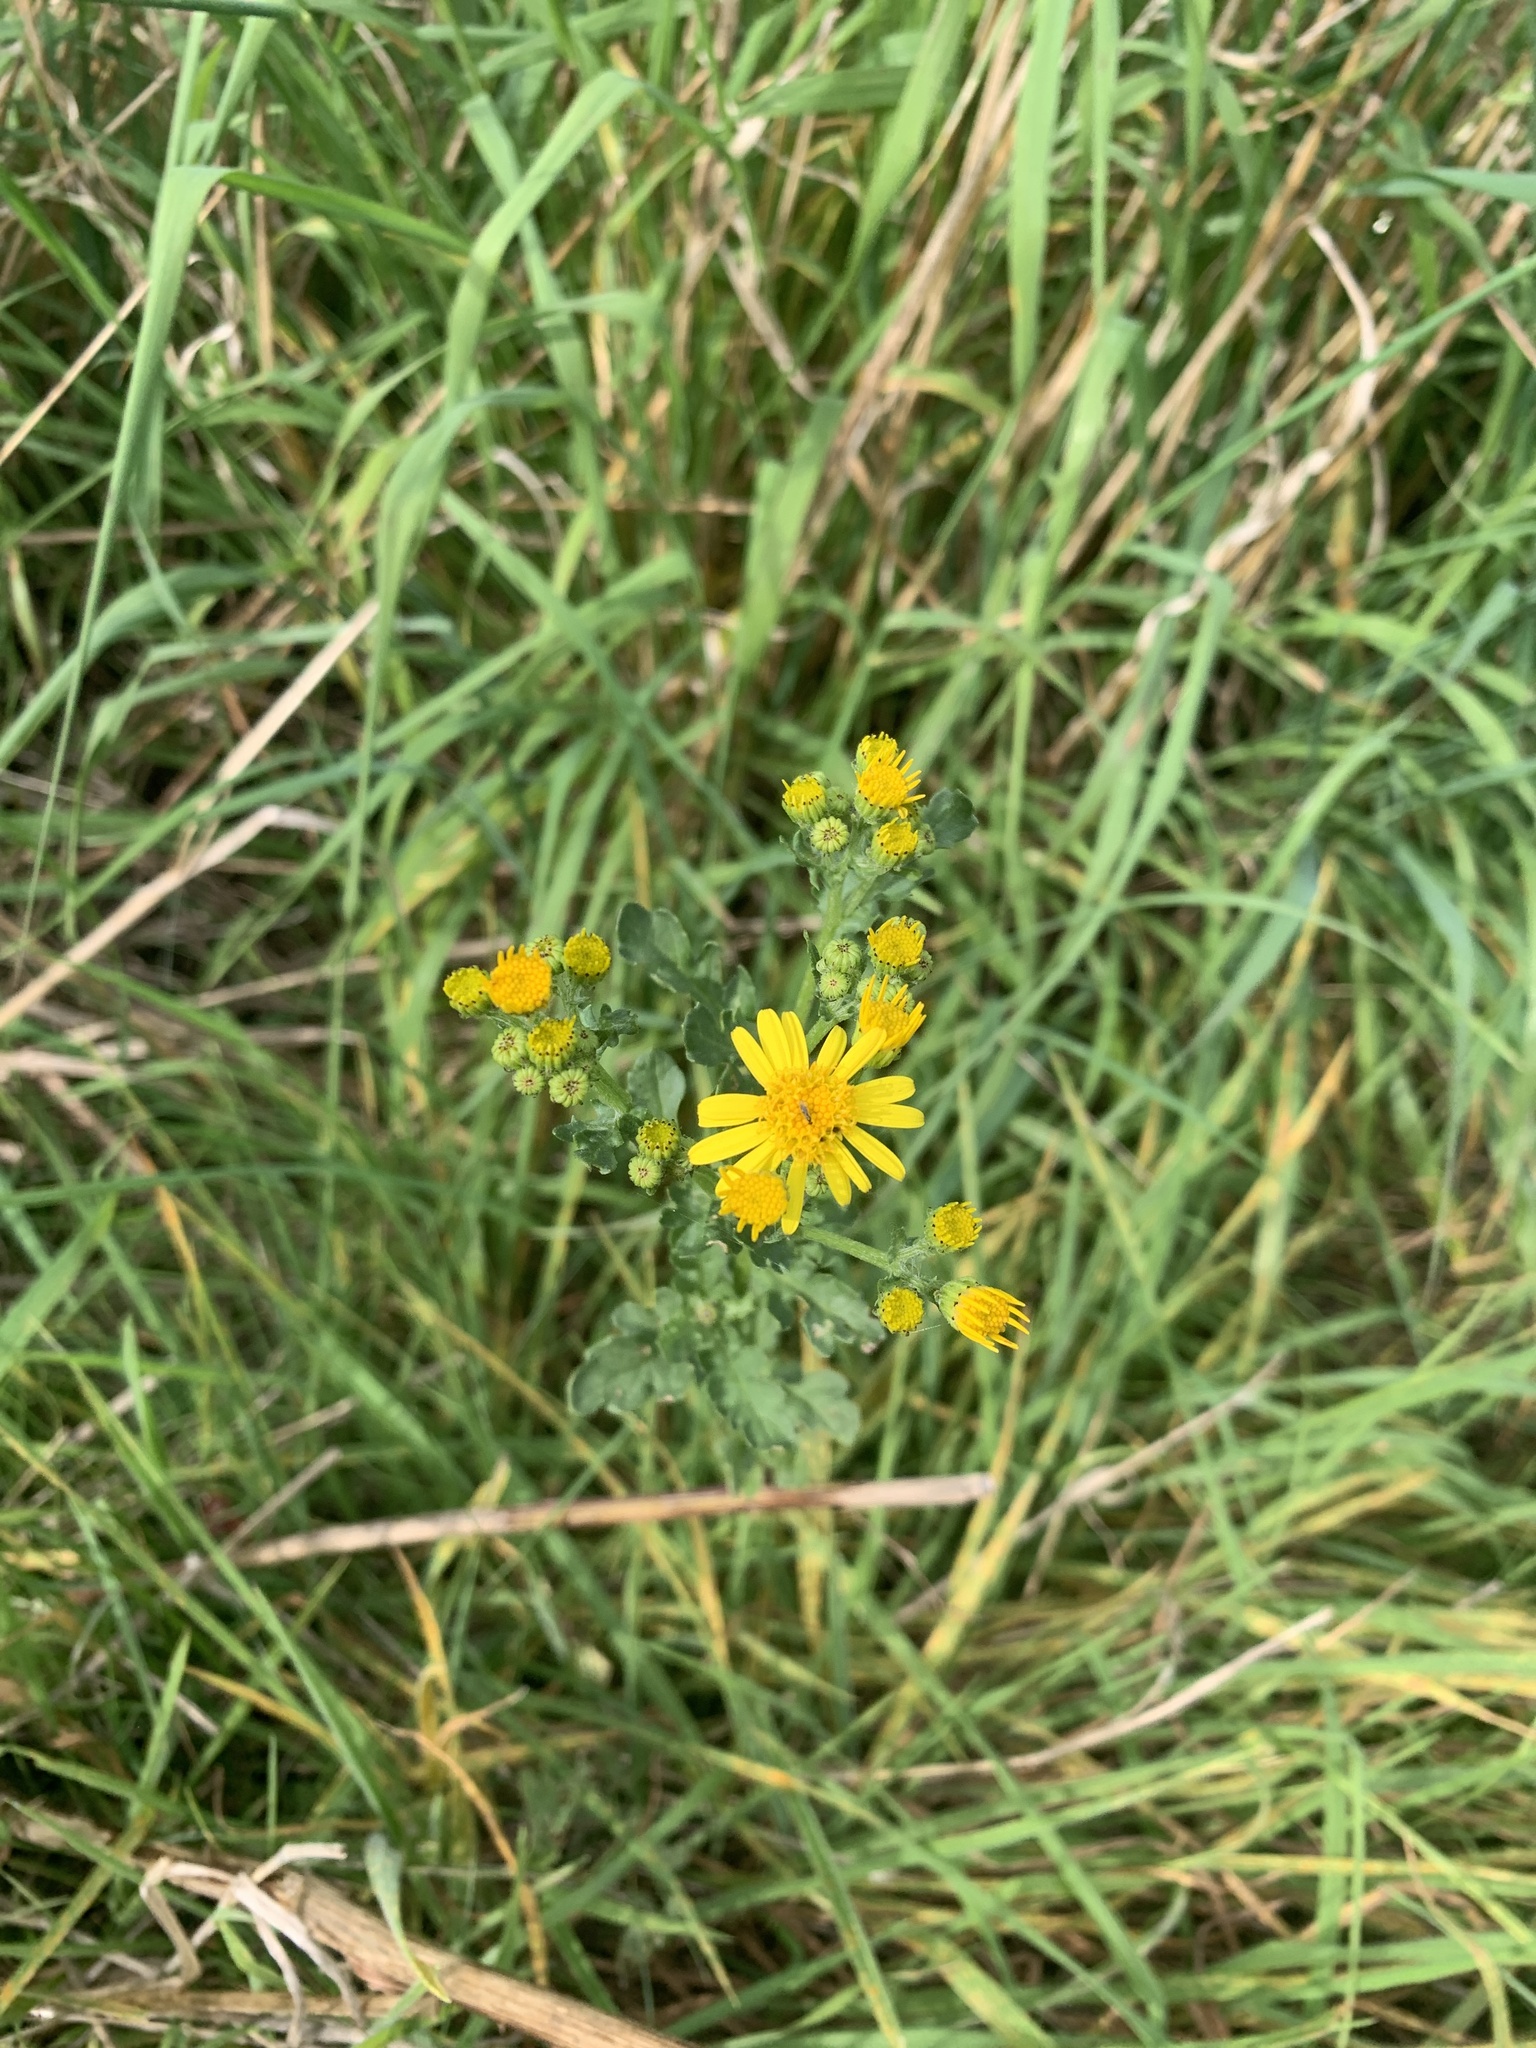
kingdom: Plantae
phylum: Tracheophyta
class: Magnoliopsida
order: Asterales
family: Asteraceae
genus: Jacobaea
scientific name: Jacobaea vulgaris
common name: Stinking willie
